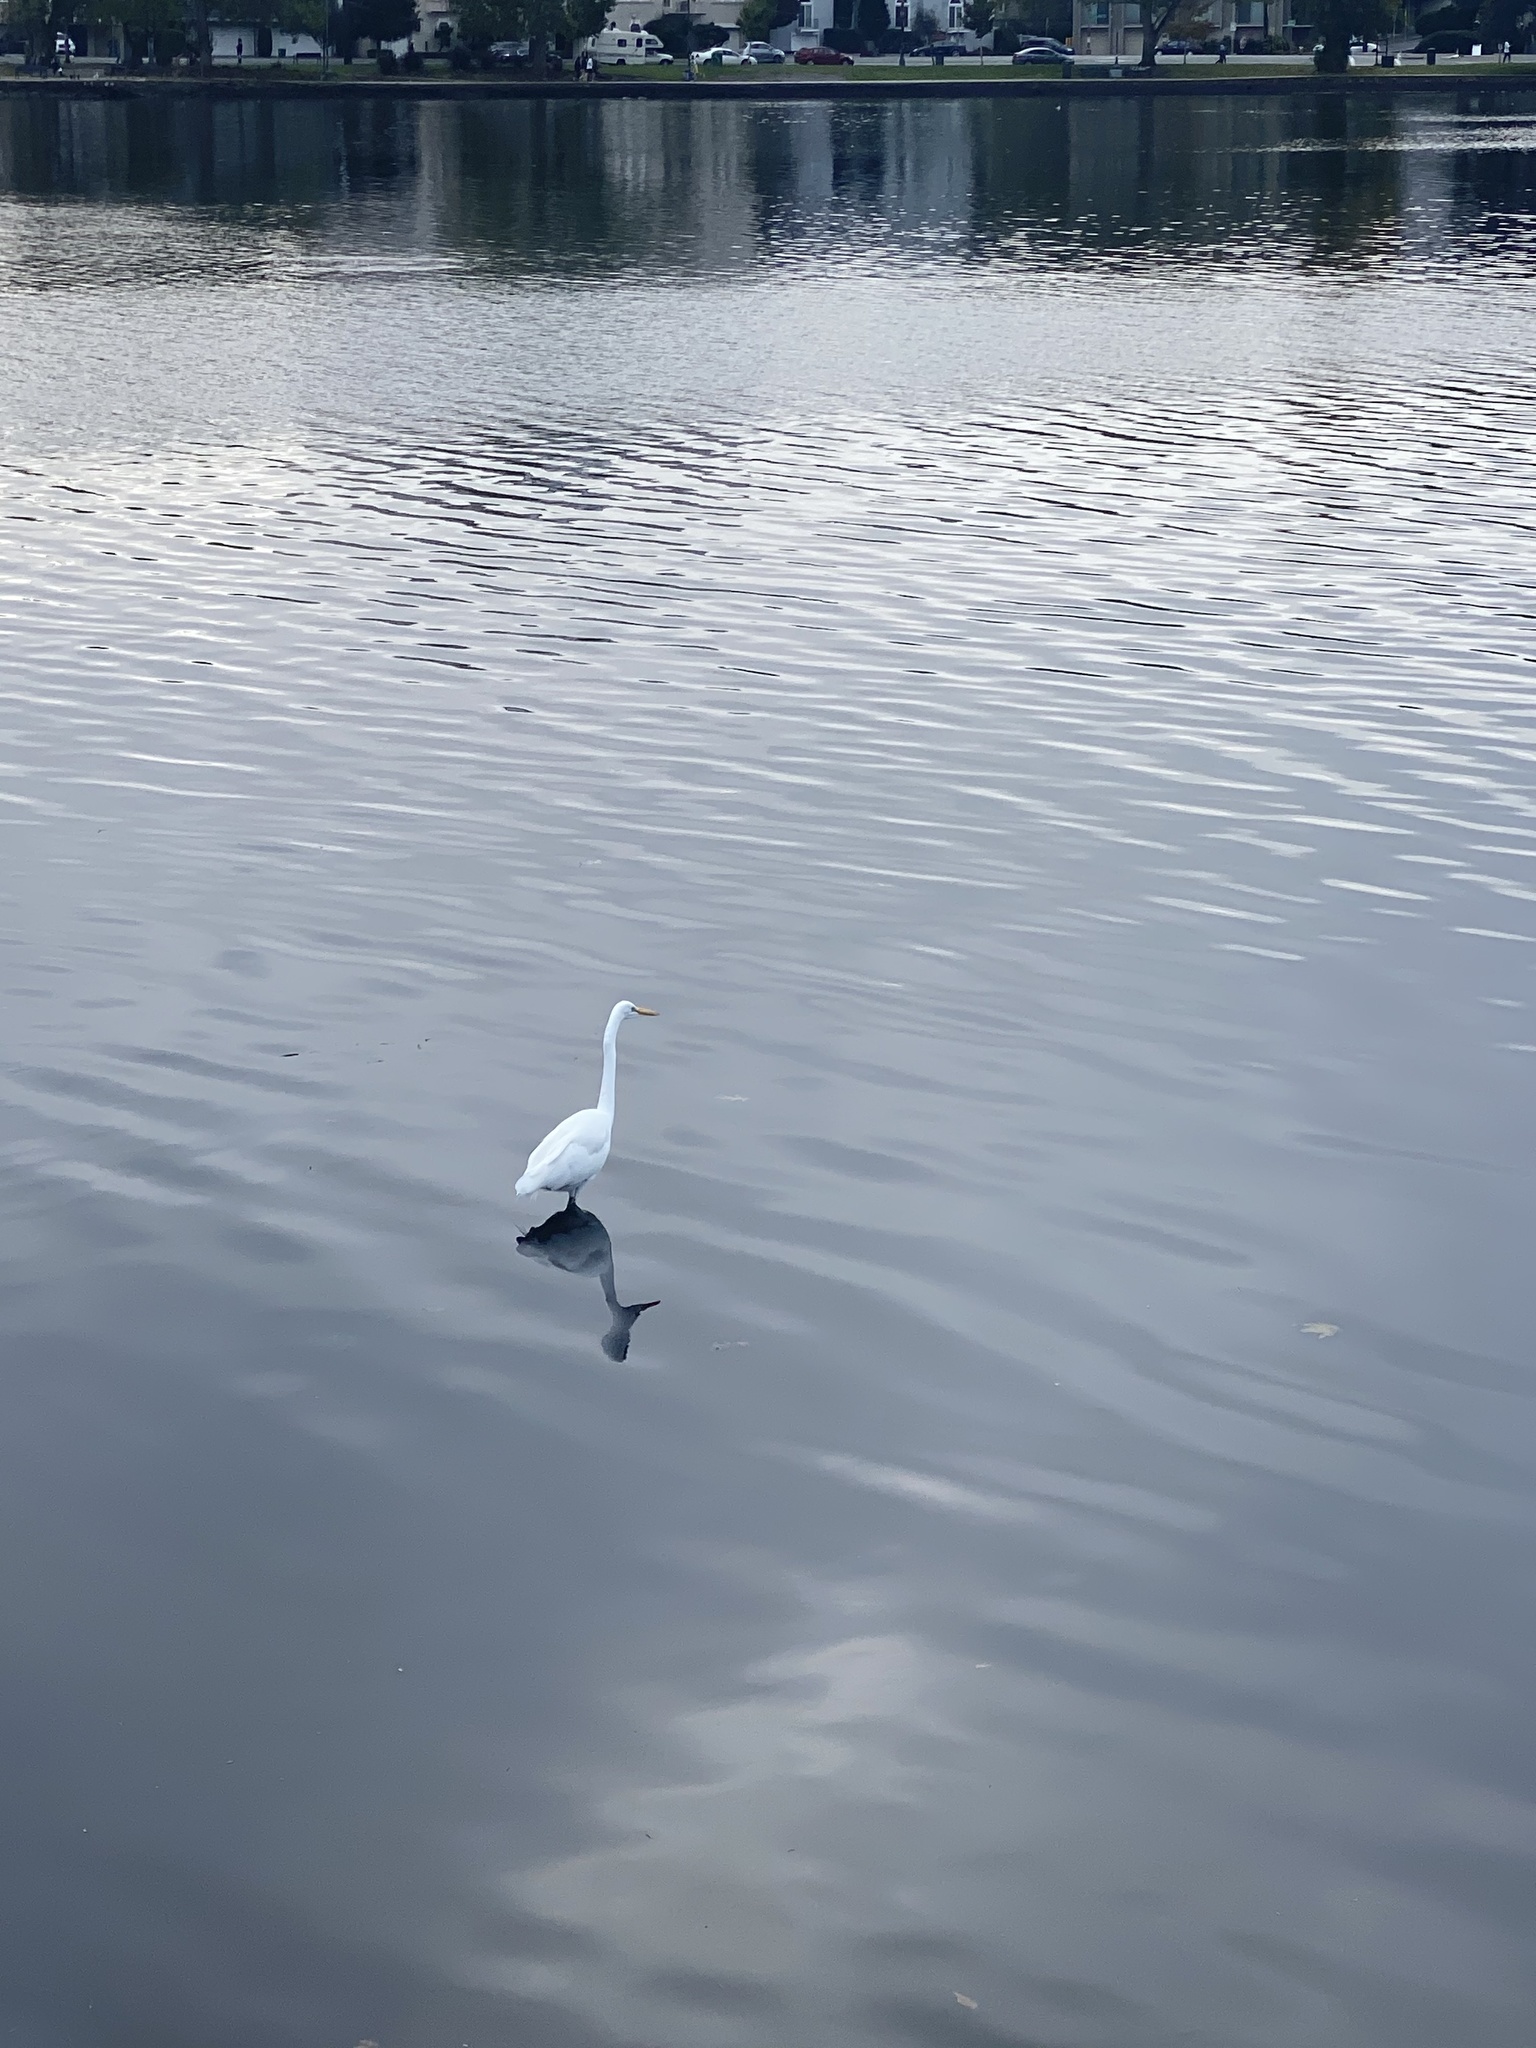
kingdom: Animalia
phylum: Chordata
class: Aves
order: Pelecaniformes
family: Ardeidae
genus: Ardea
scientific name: Ardea alba
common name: Great egret
